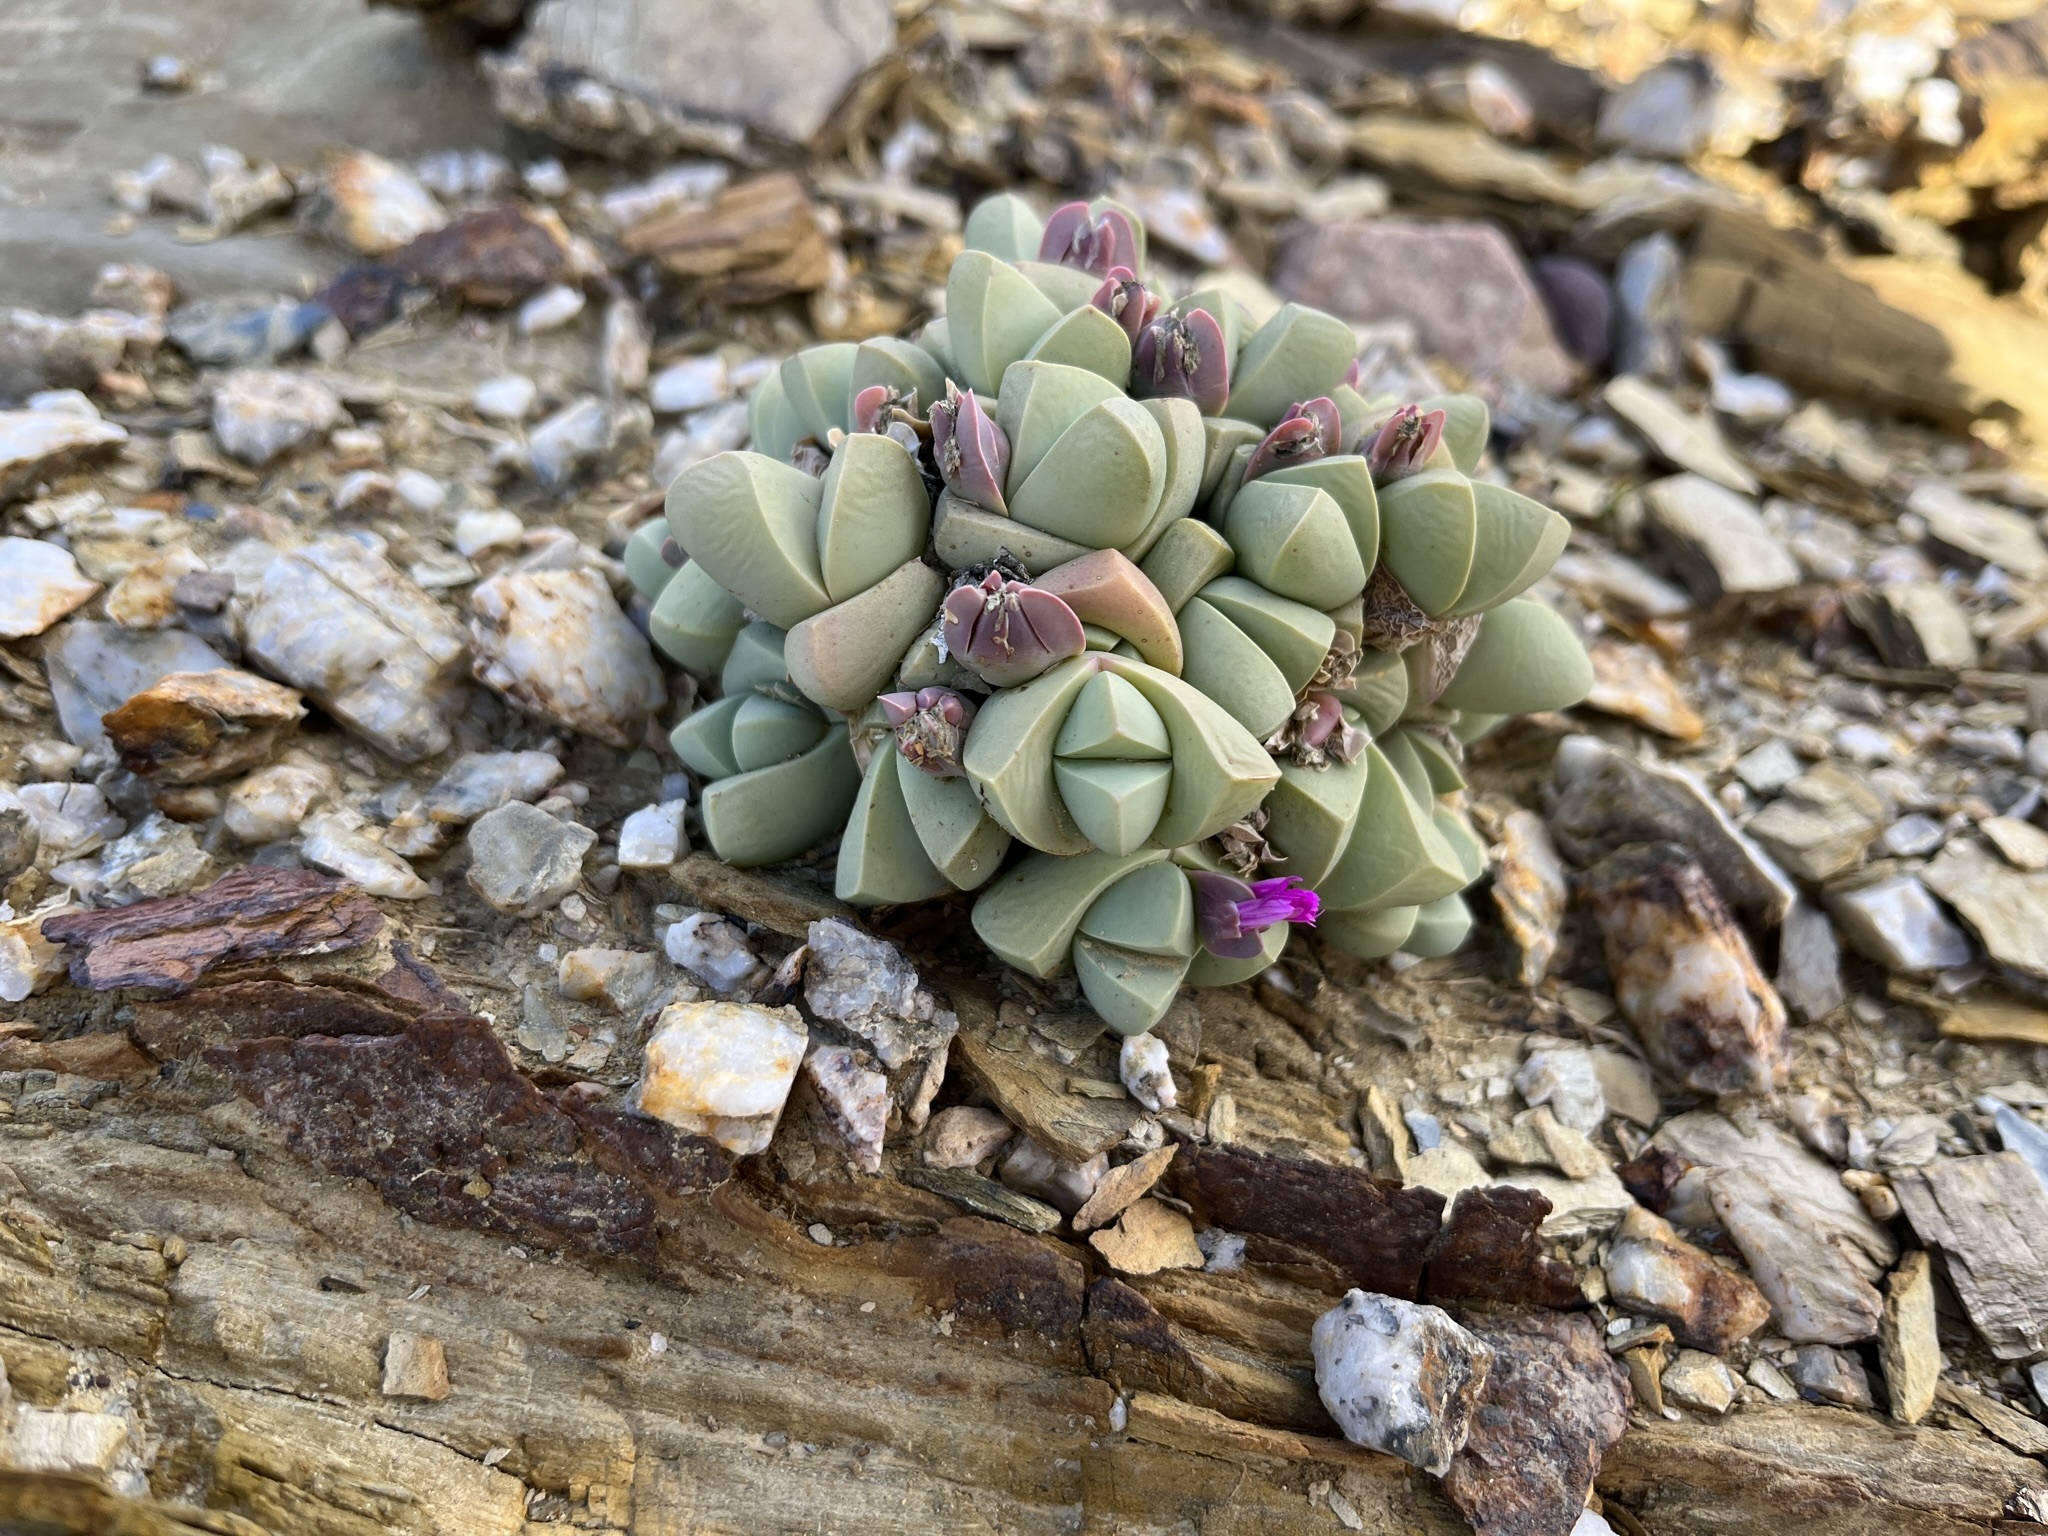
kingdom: Plantae
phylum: Tracheophyta
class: Magnoliopsida
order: Caryophyllales
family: Aizoaceae
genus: Gibbaeum
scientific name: Gibbaeum petrense
